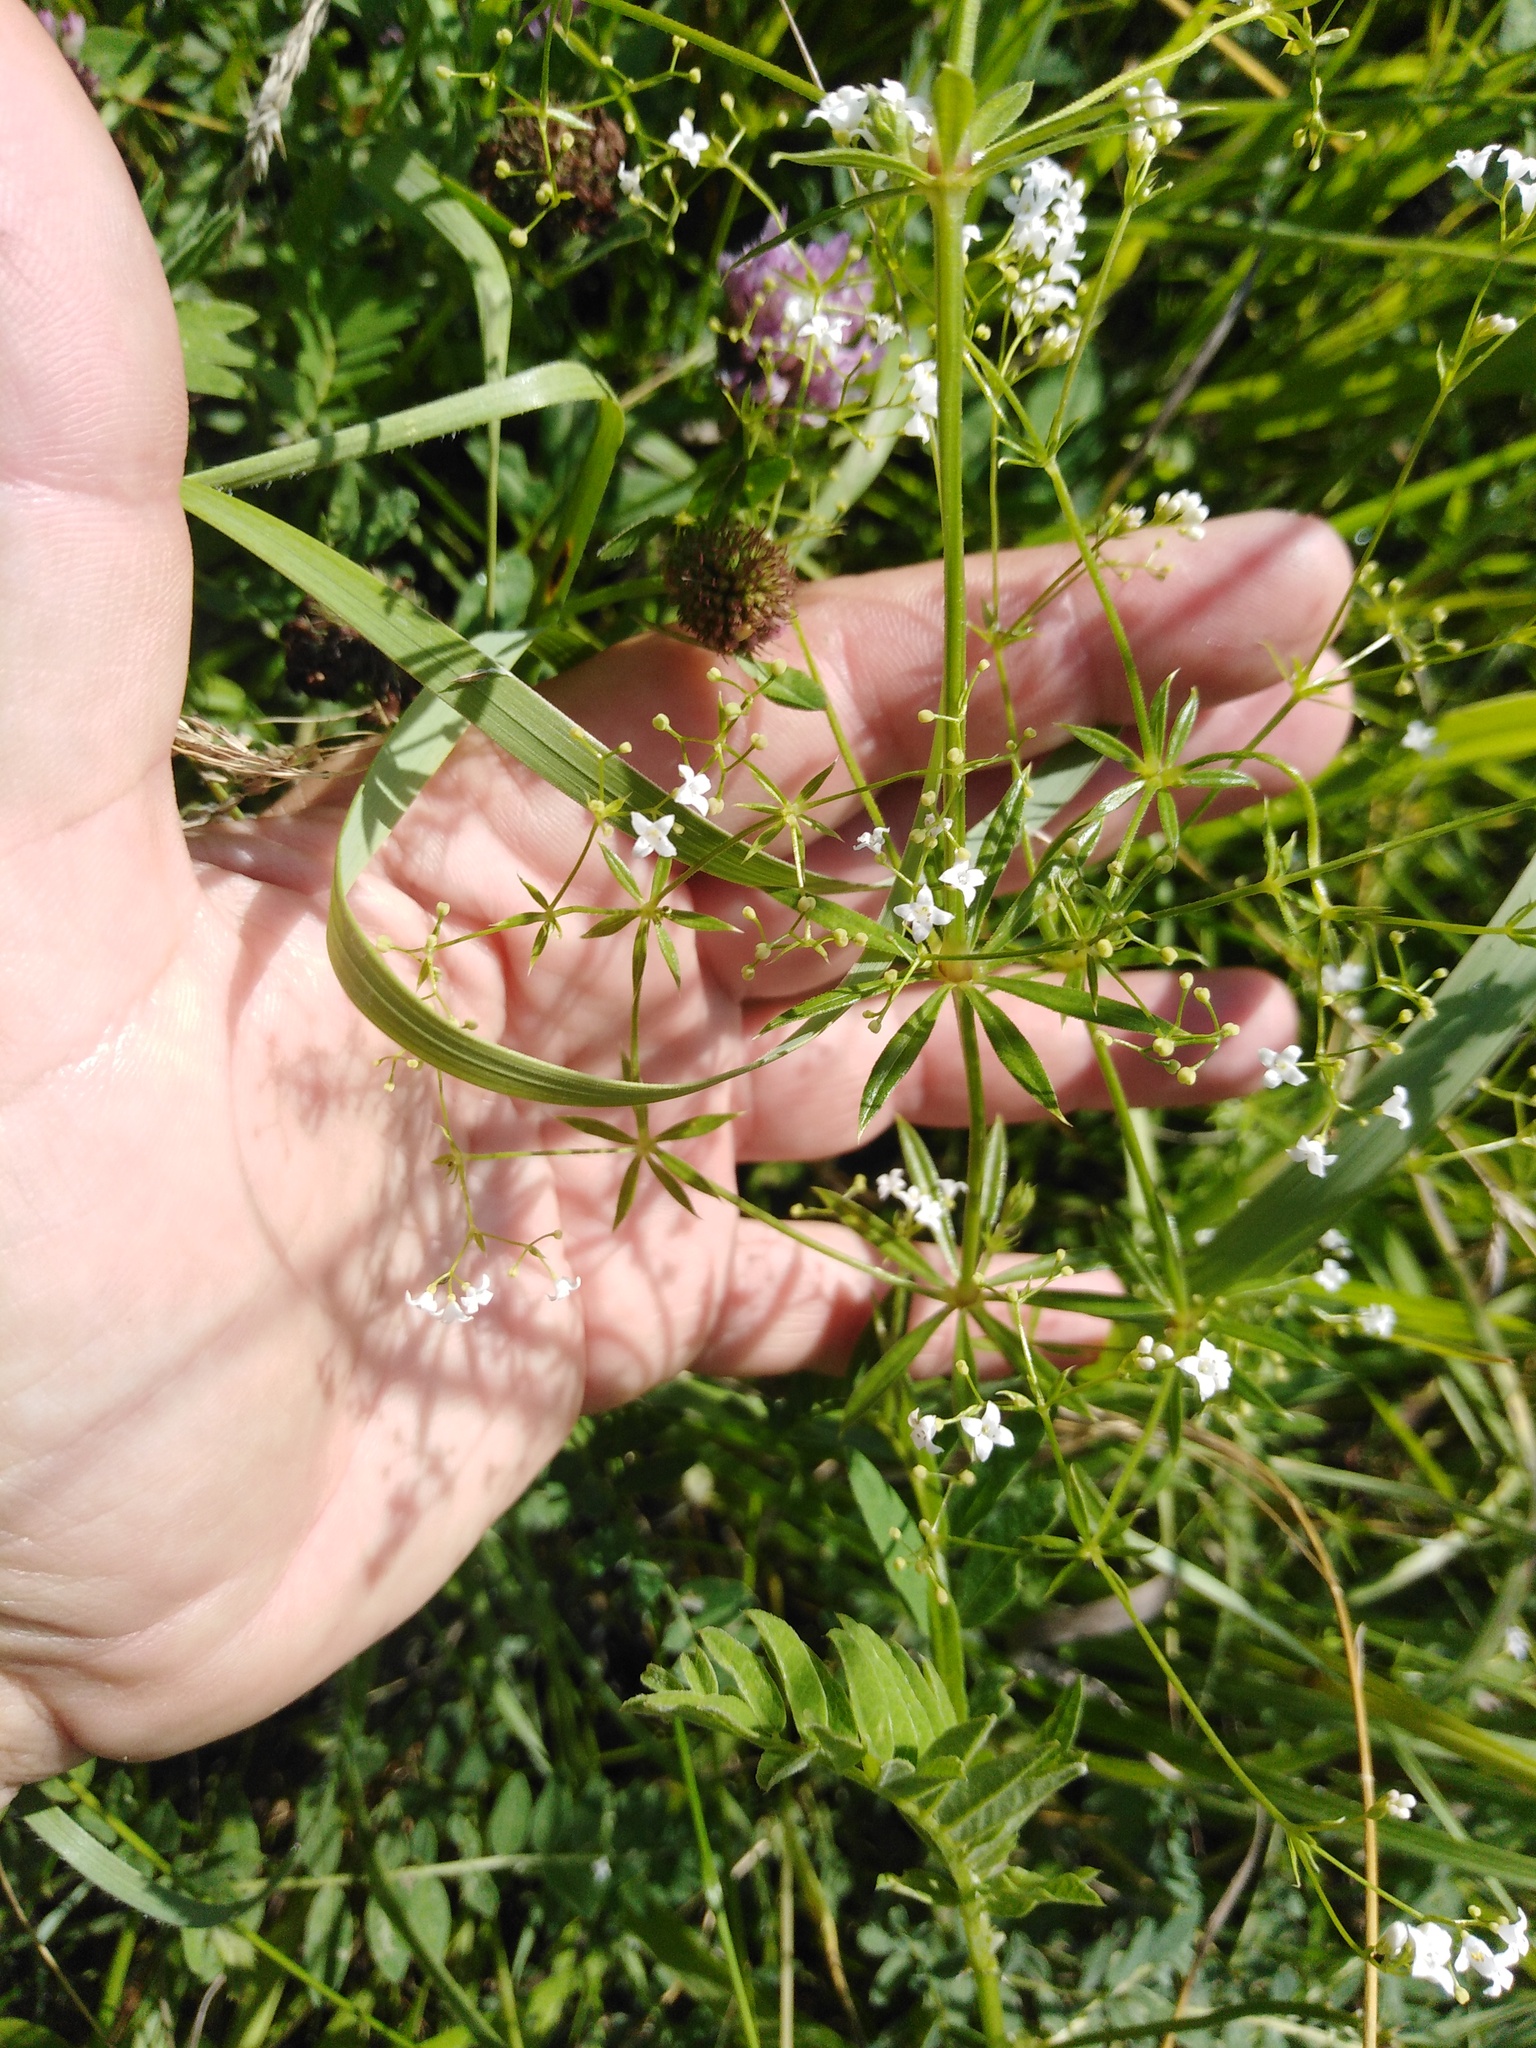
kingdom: Plantae
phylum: Tracheophyta
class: Magnoliopsida
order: Gentianales
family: Rubiaceae
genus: Galium
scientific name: Galium rivale
